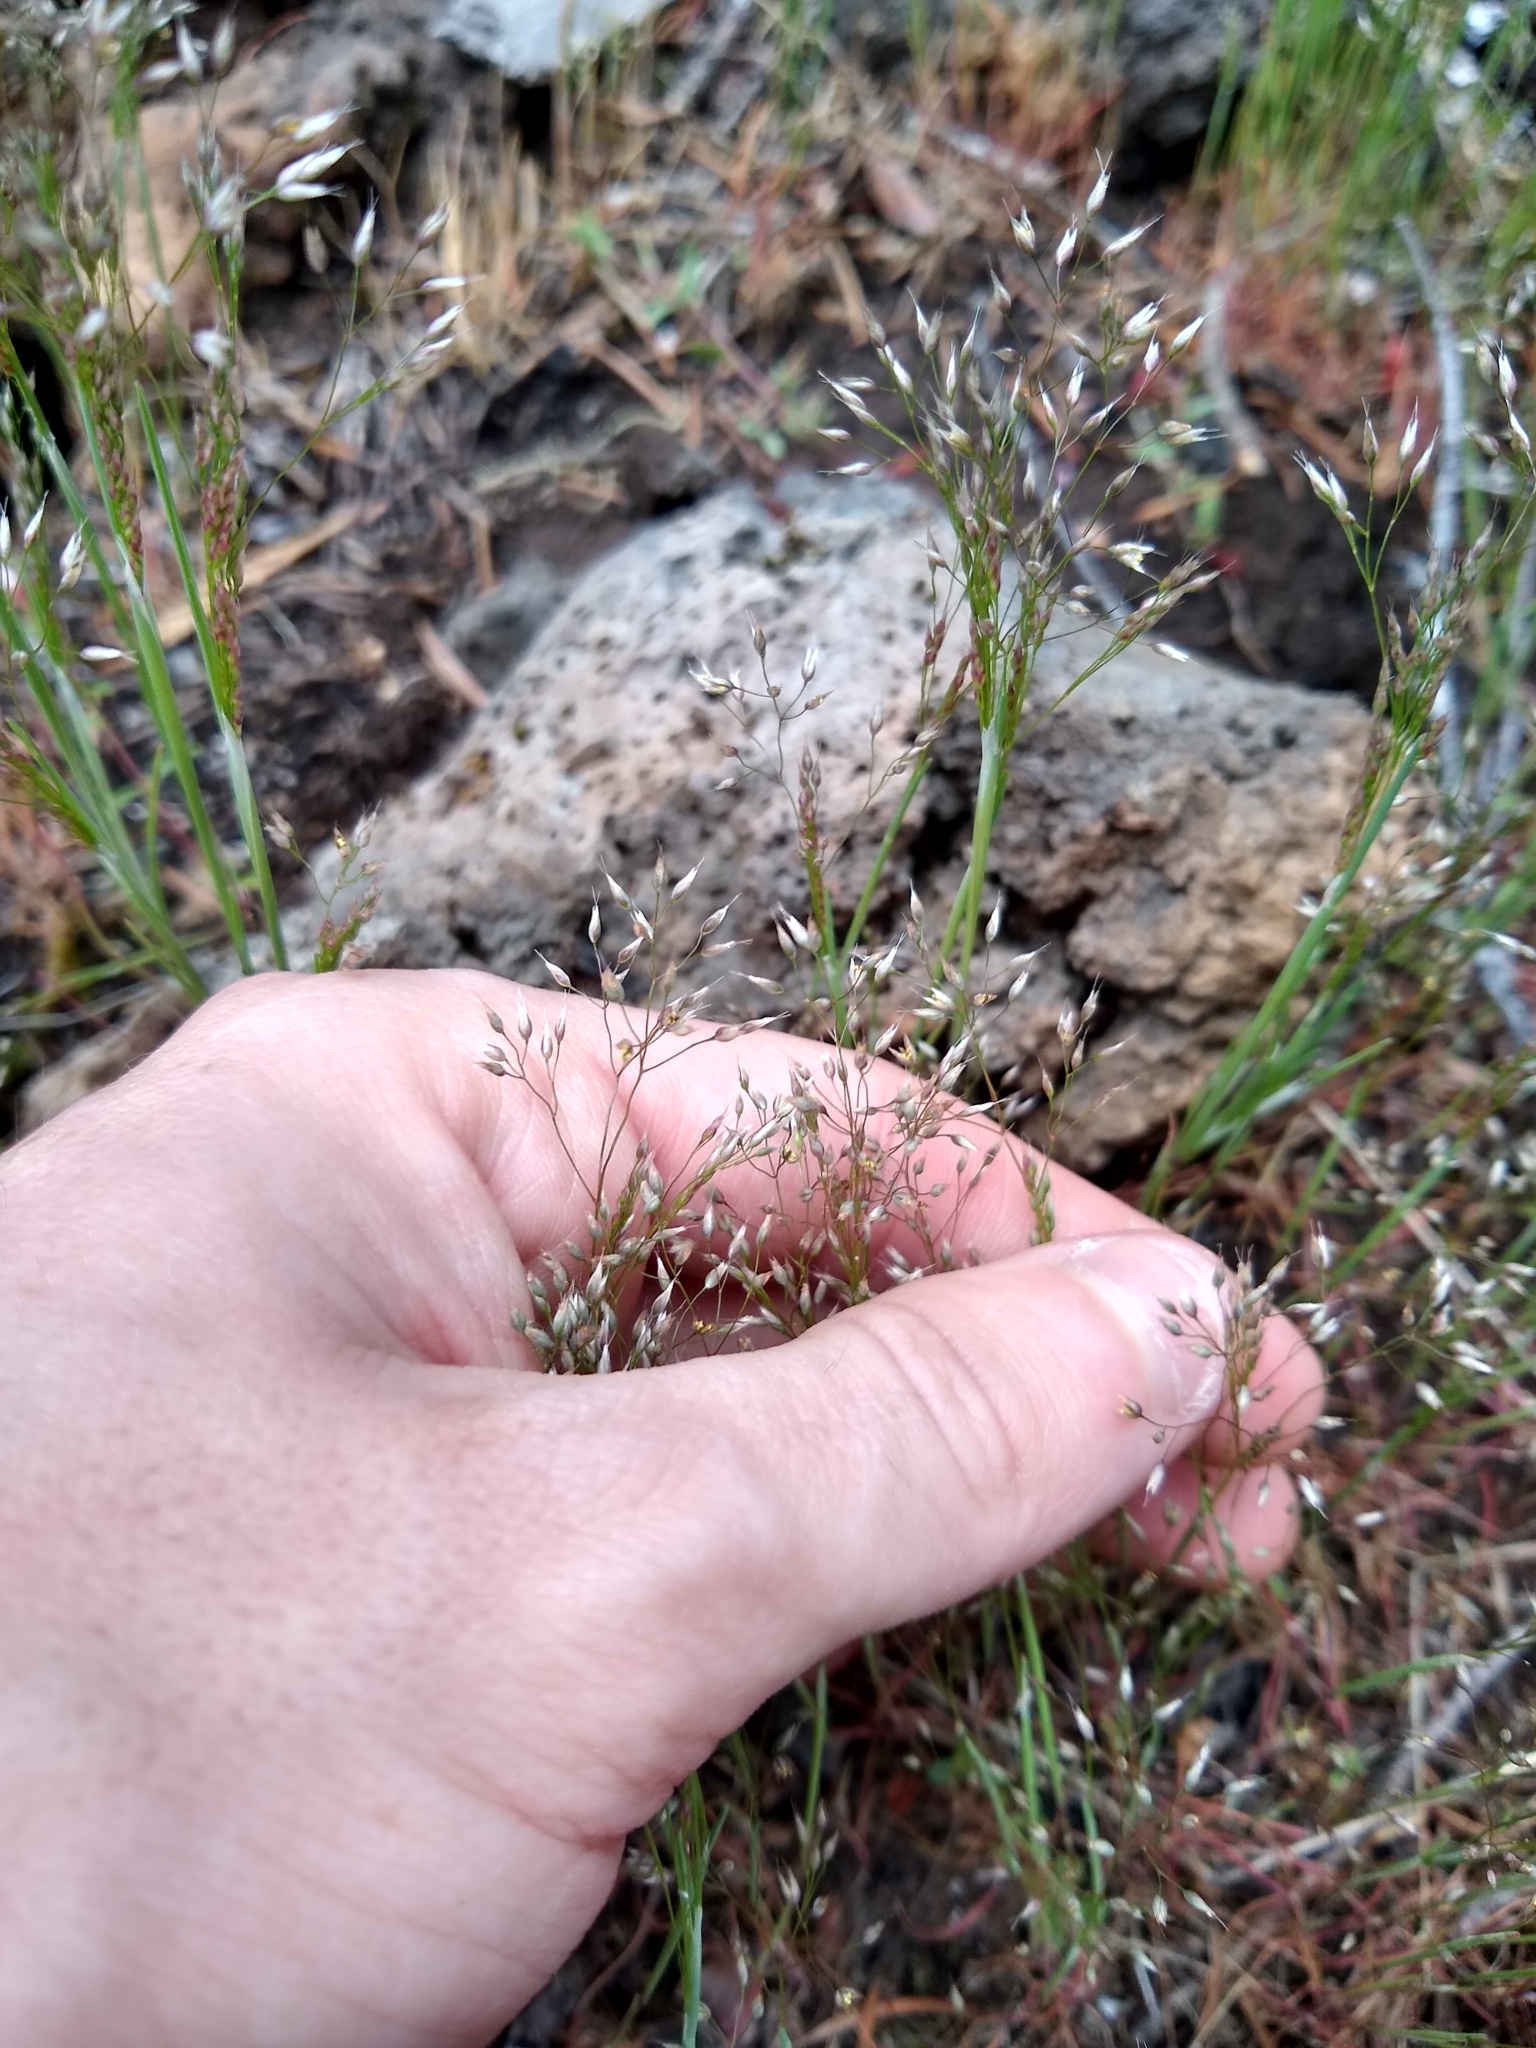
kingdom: Plantae
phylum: Tracheophyta
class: Liliopsida
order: Poales
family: Poaceae
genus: Aira
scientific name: Aira caryophyllea
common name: Silver hairgrass
